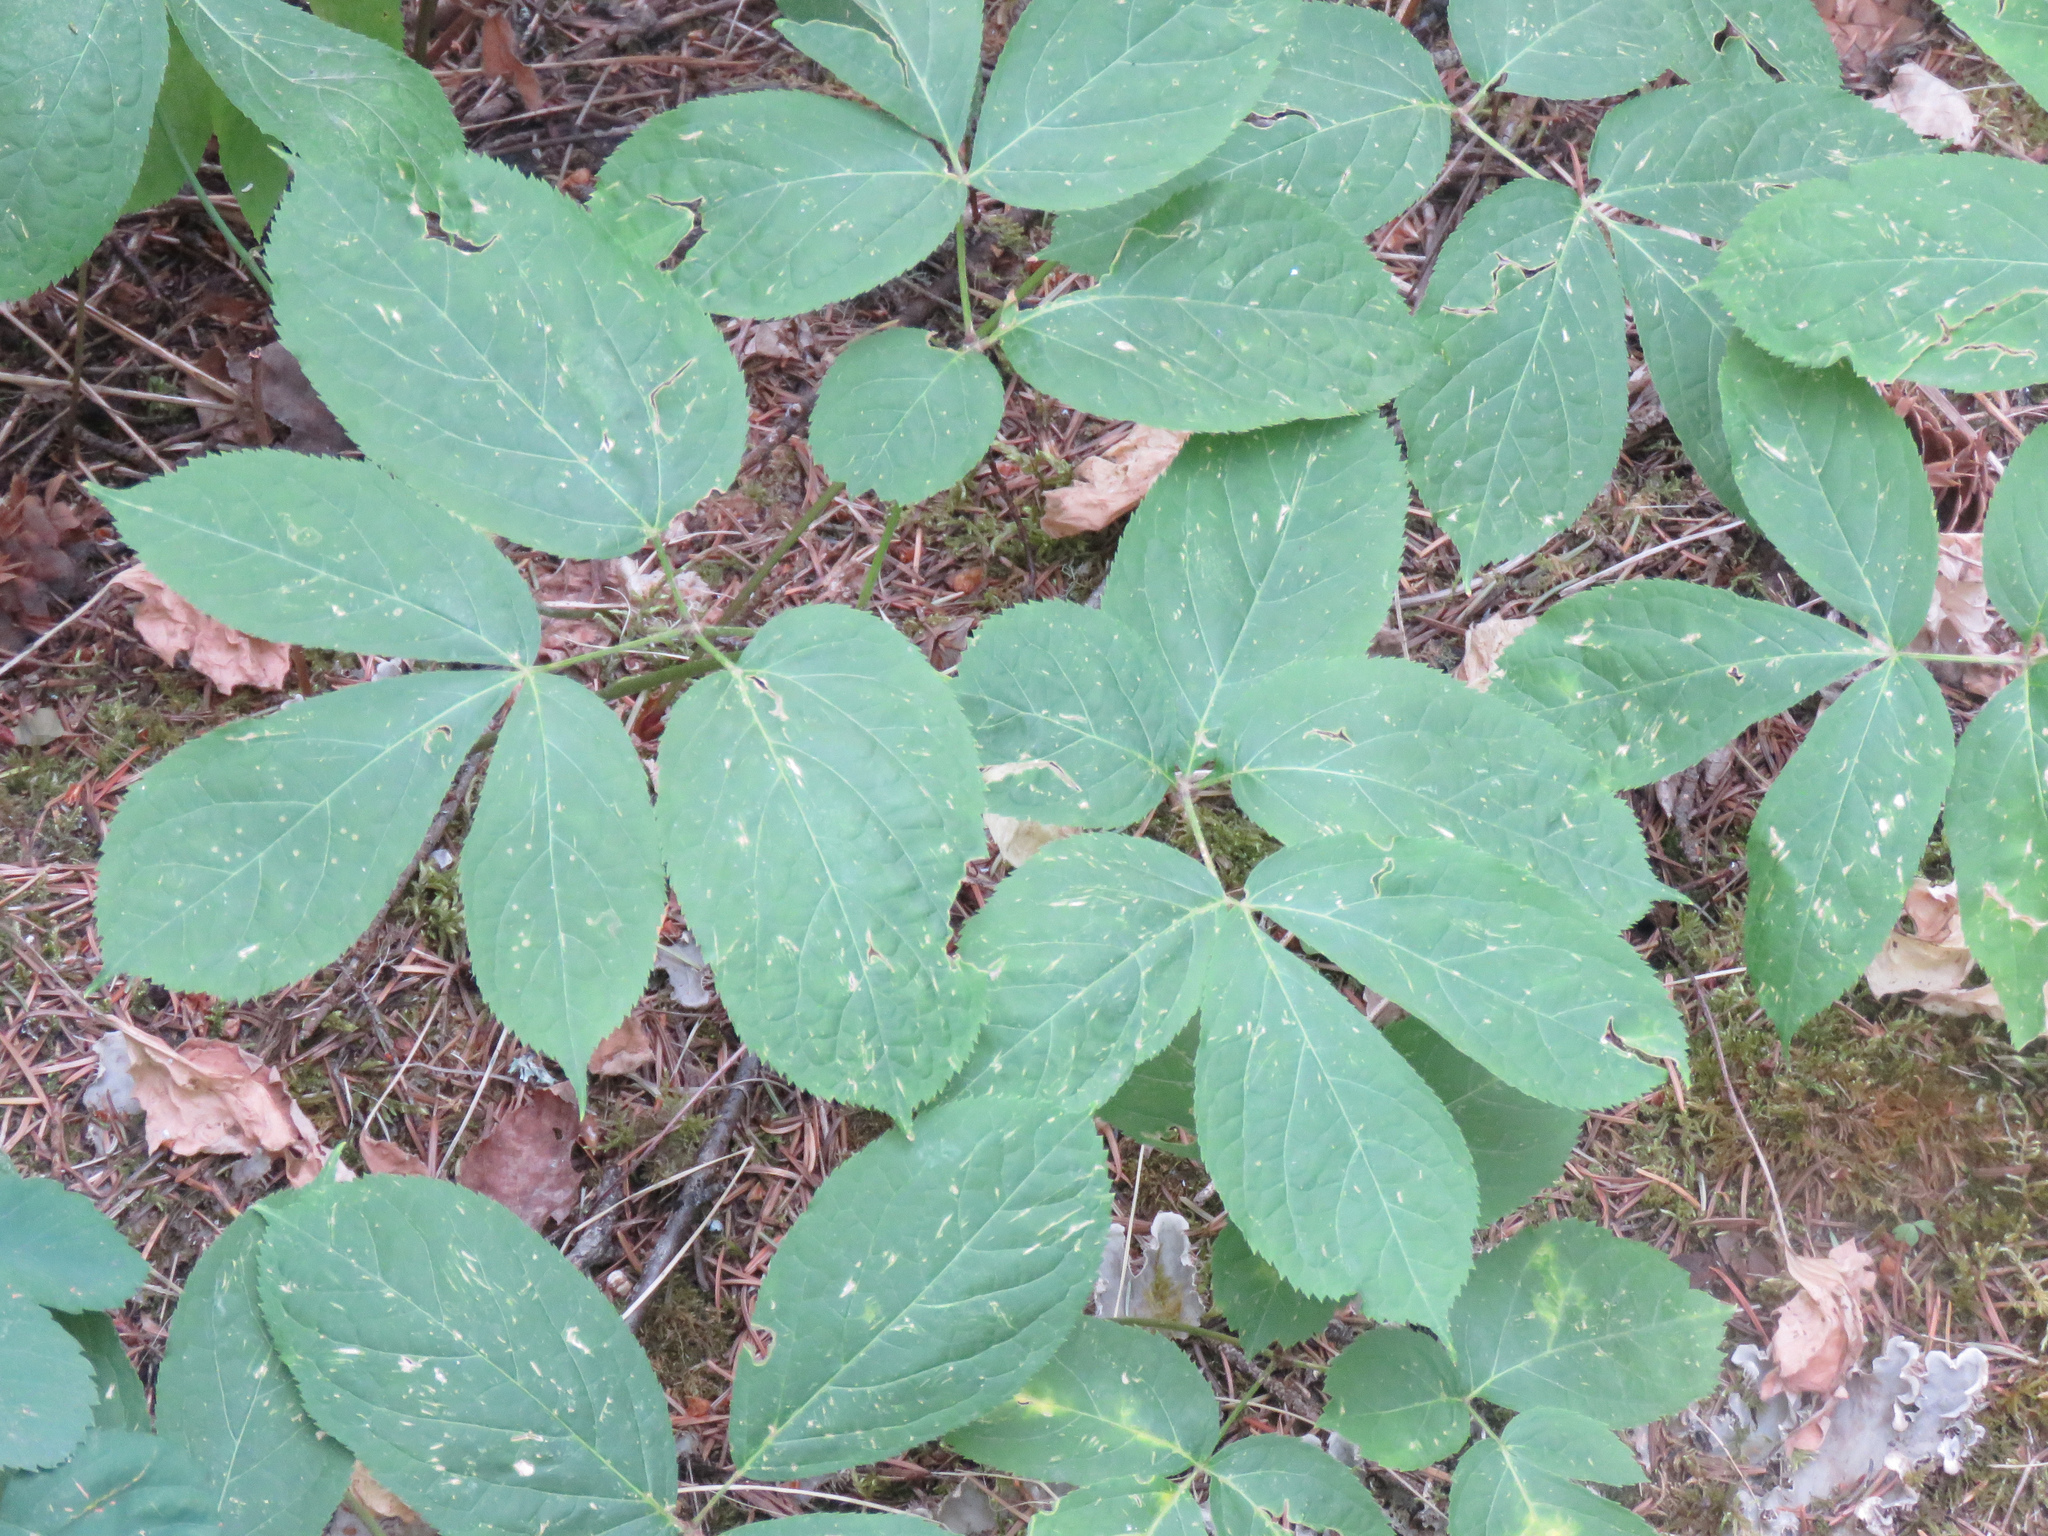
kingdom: Plantae
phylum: Tracheophyta
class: Magnoliopsida
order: Apiales
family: Araliaceae
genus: Aralia
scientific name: Aralia nudicaulis
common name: Wild sarsaparilla
